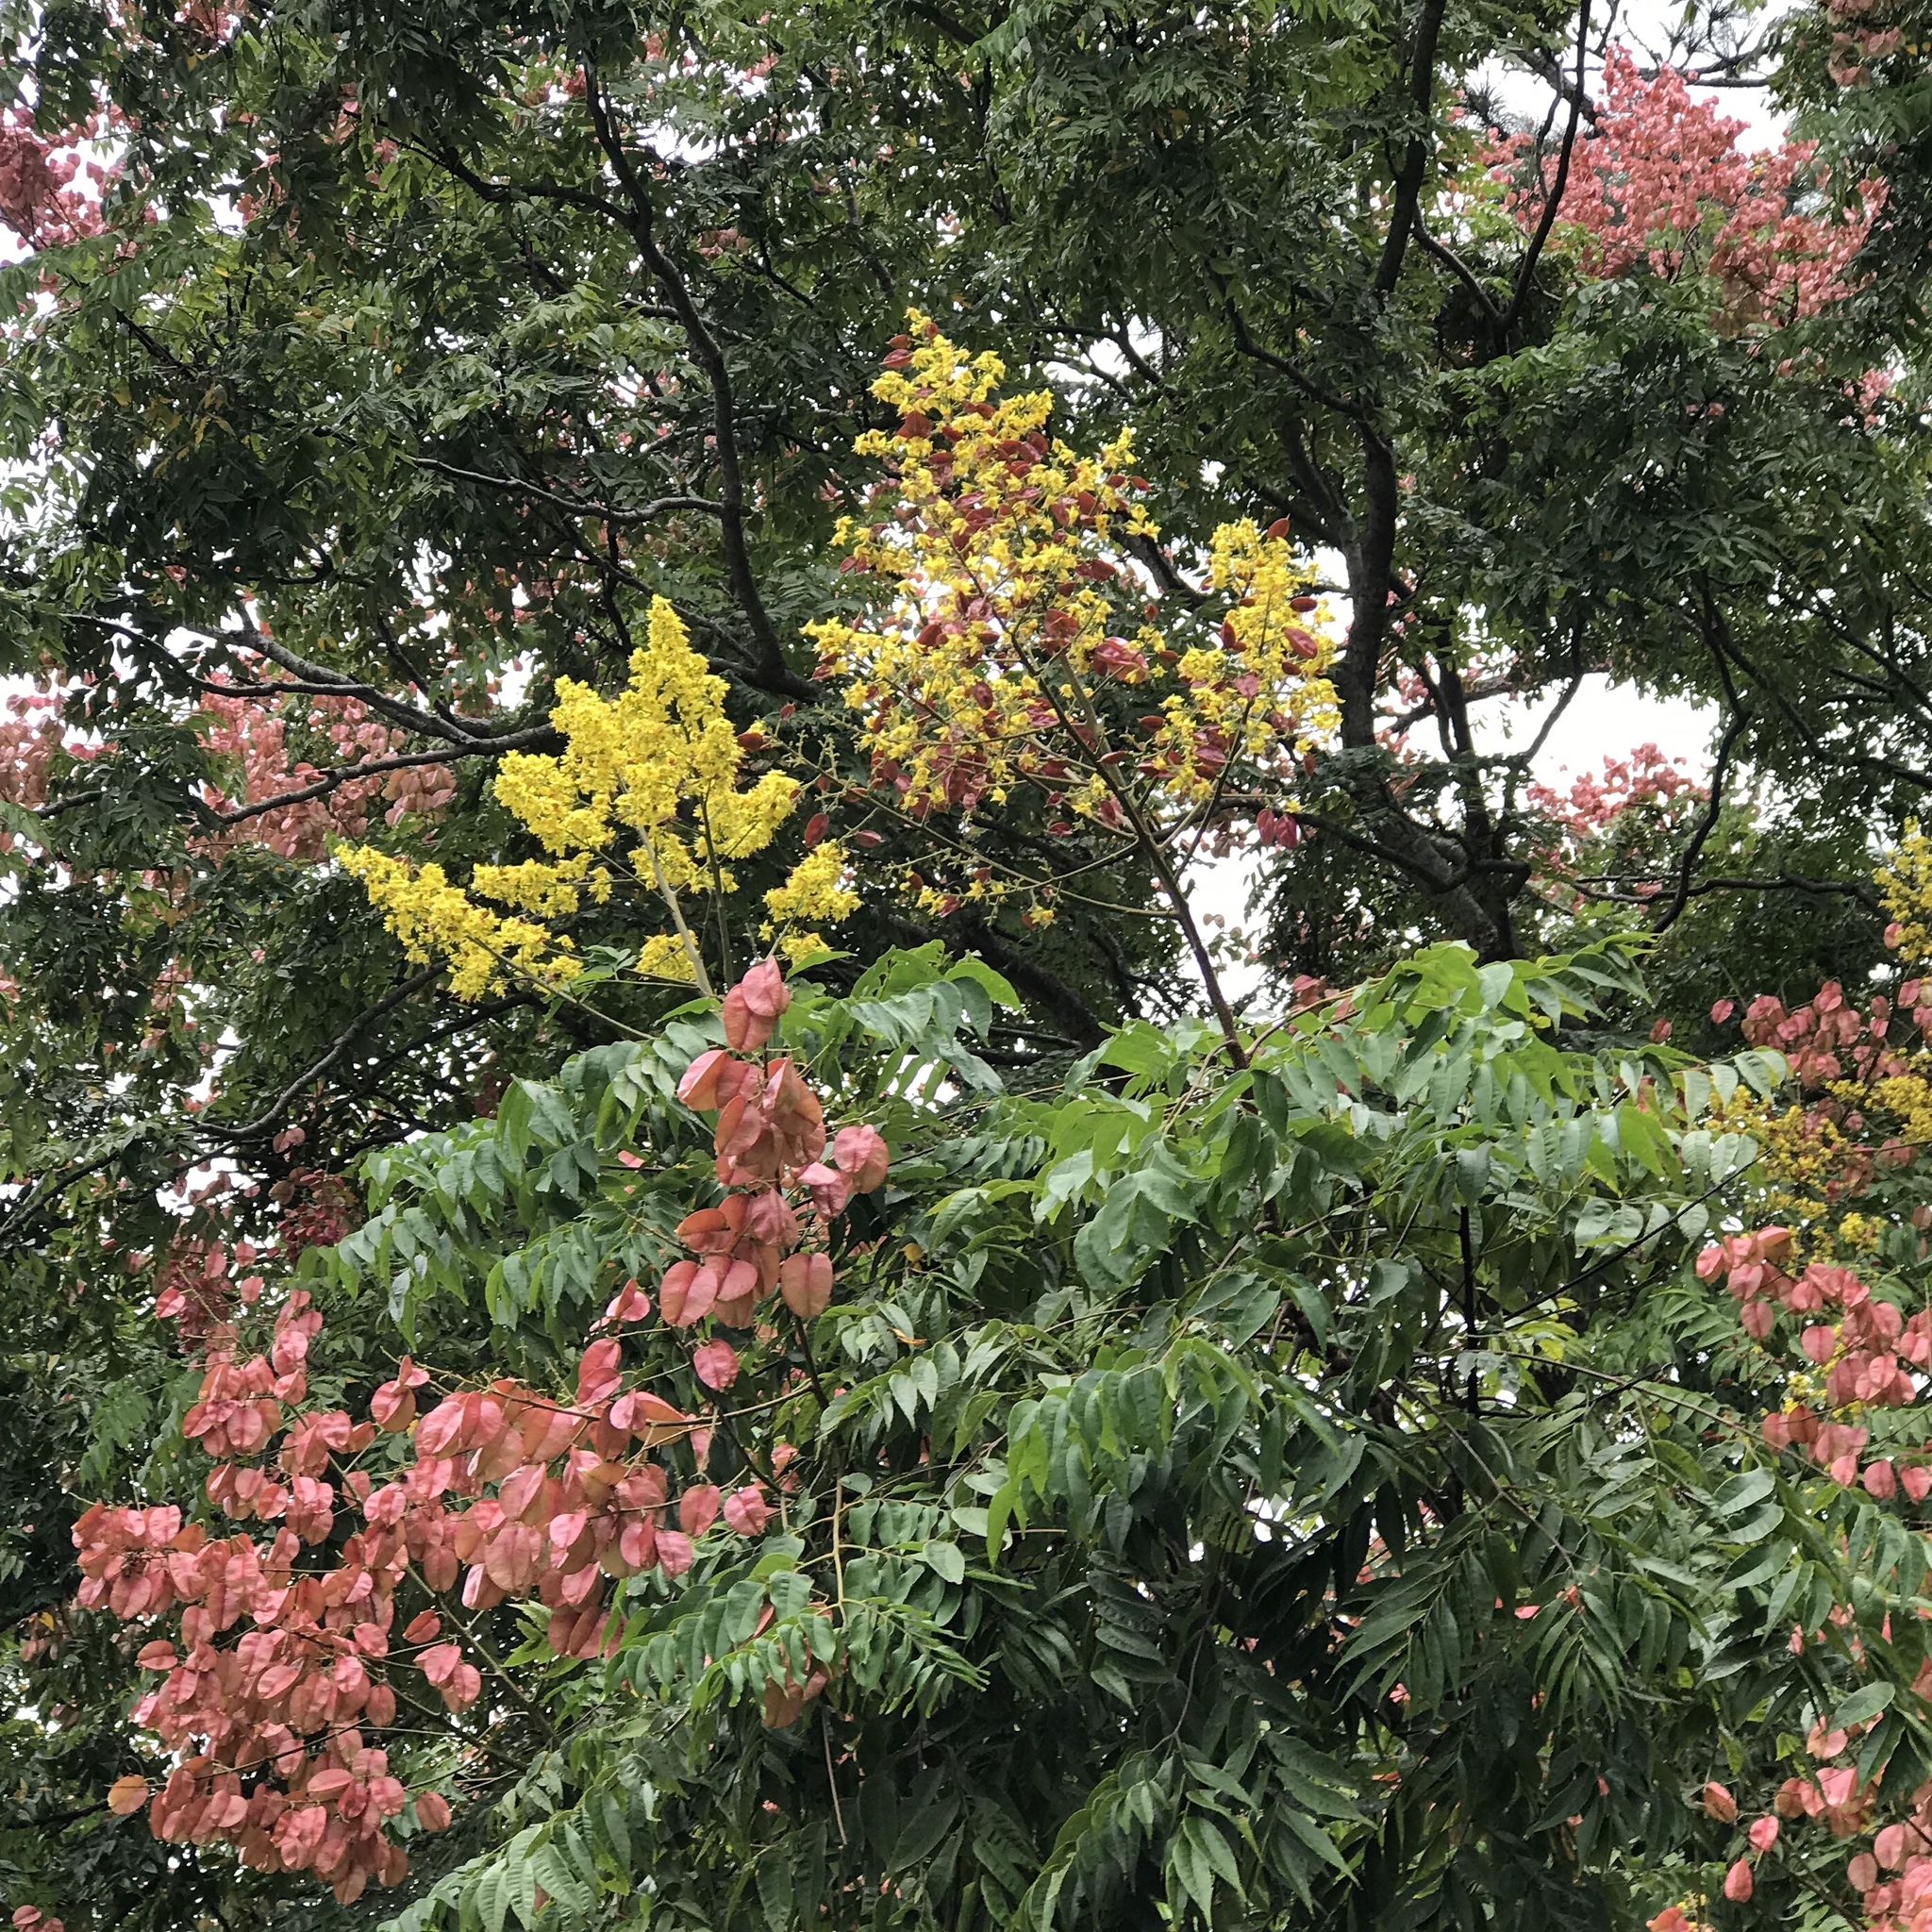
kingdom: Plantae
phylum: Tracheophyta
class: Magnoliopsida
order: Sapindales
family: Sapindaceae
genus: Koelreuteria
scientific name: Koelreuteria elegans
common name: Chinese flame tree
